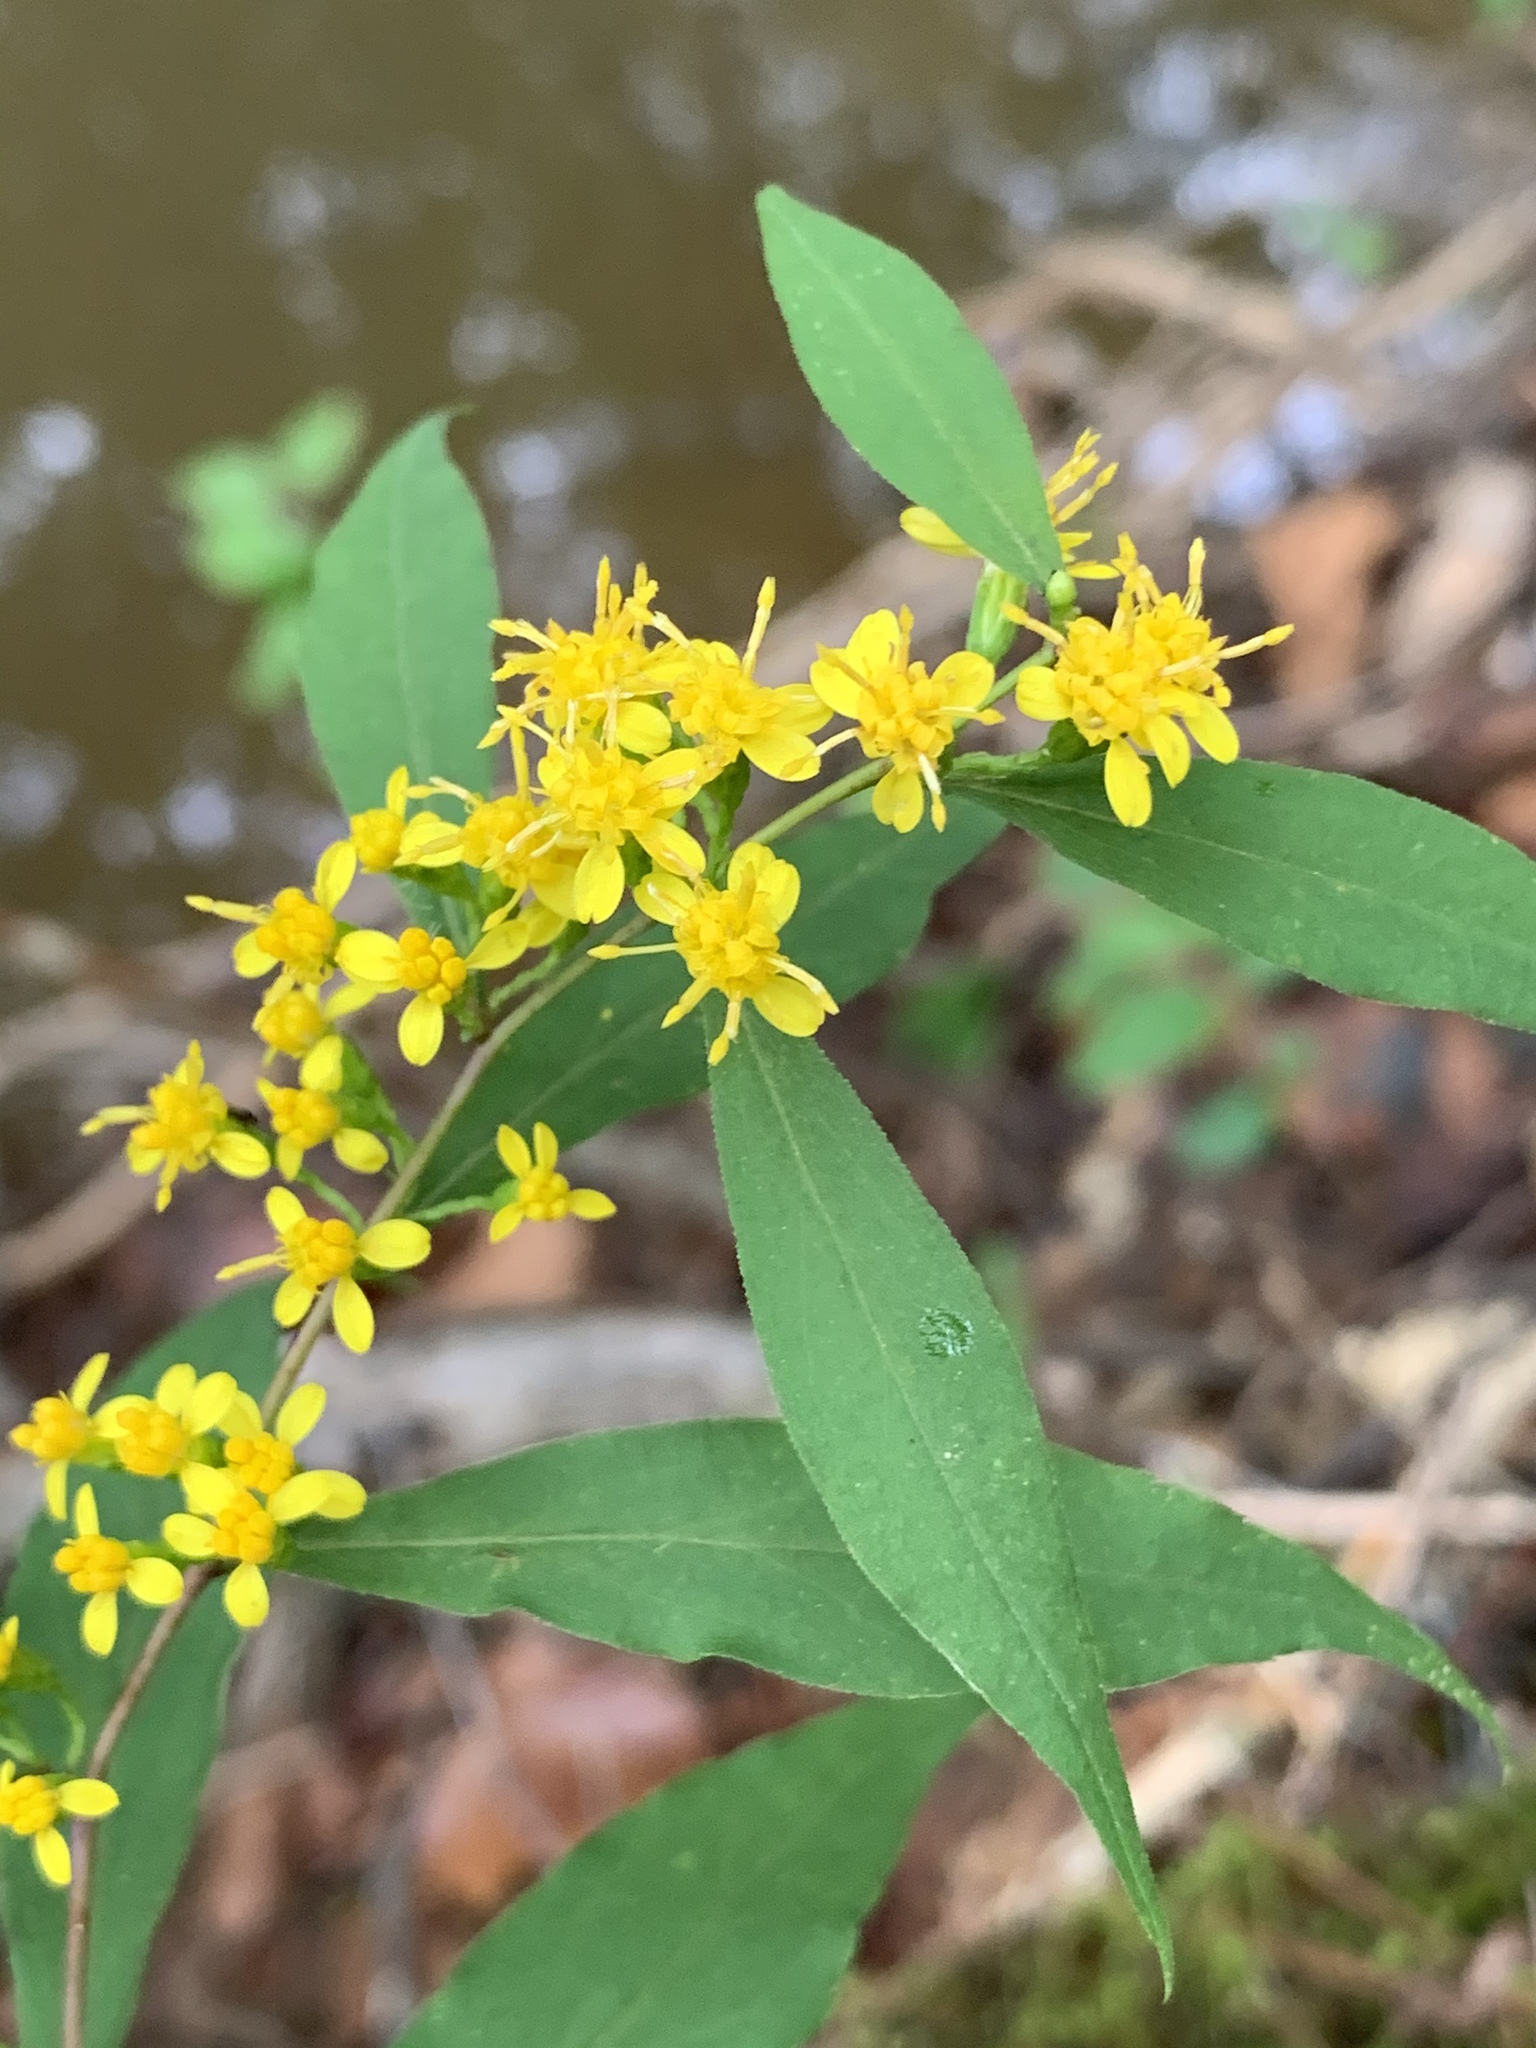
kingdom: Plantae
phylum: Tracheophyta
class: Magnoliopsida
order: Asterales
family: Asteraceae
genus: Solidago
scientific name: Solidago caesia
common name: Woodland goldenrod
